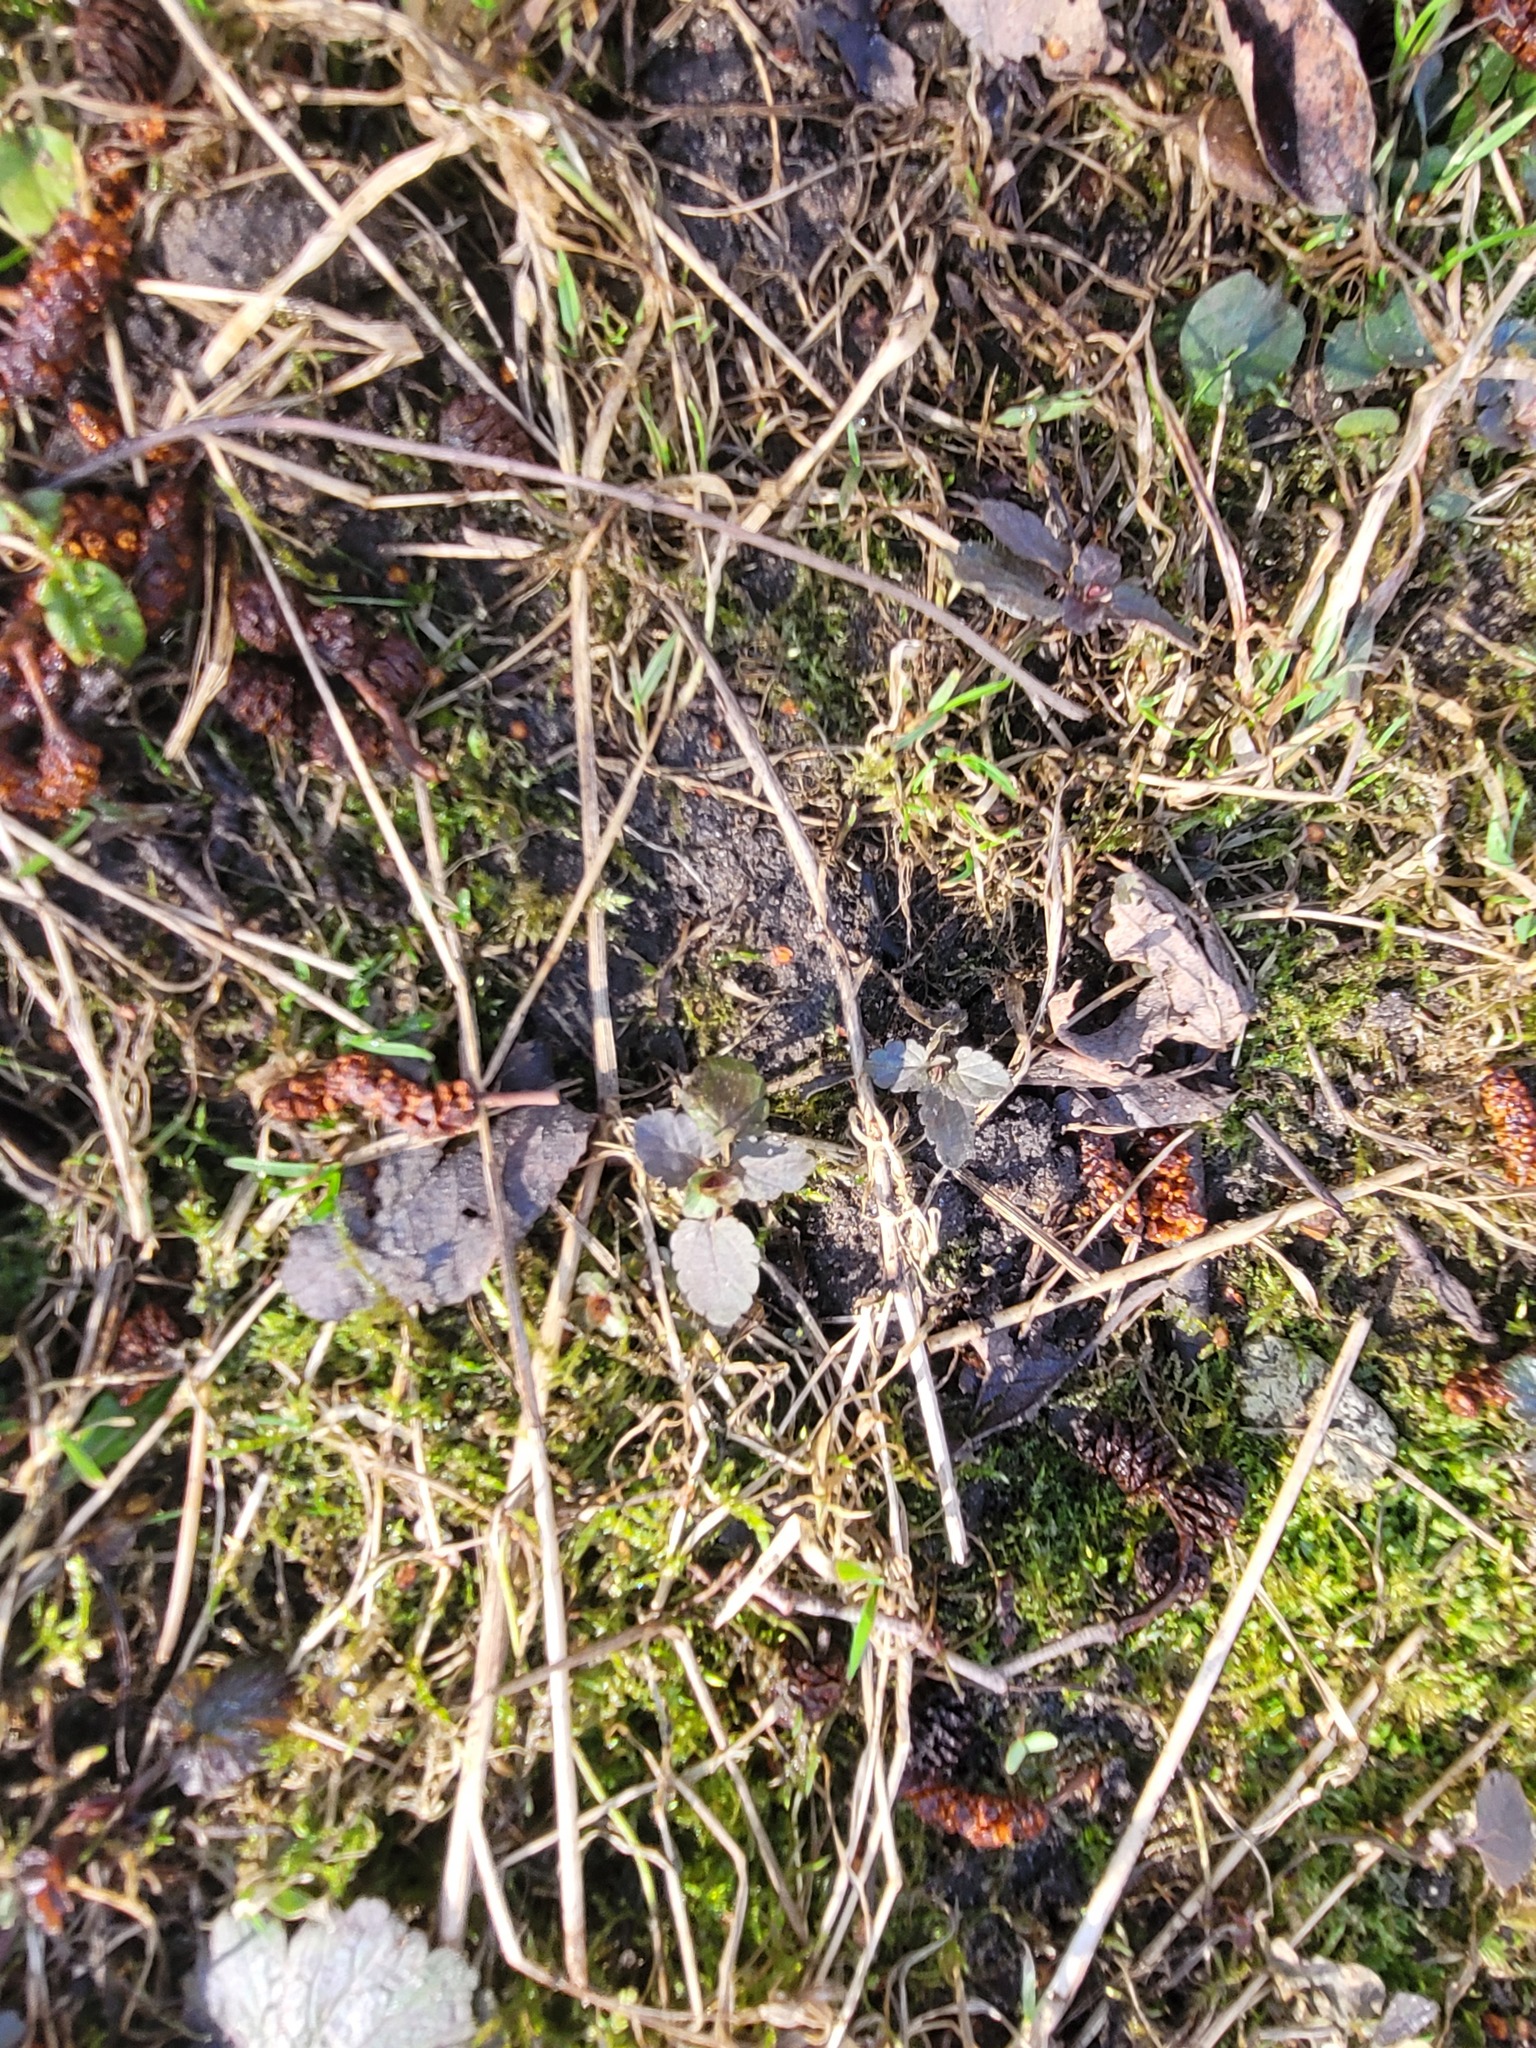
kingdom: Plantae
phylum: Tracheophyta
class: Magnoliopsida
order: Lamiales
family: Plantaginaceae
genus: Veronica
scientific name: Veronica chamaedrys
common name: Germander speedwell
